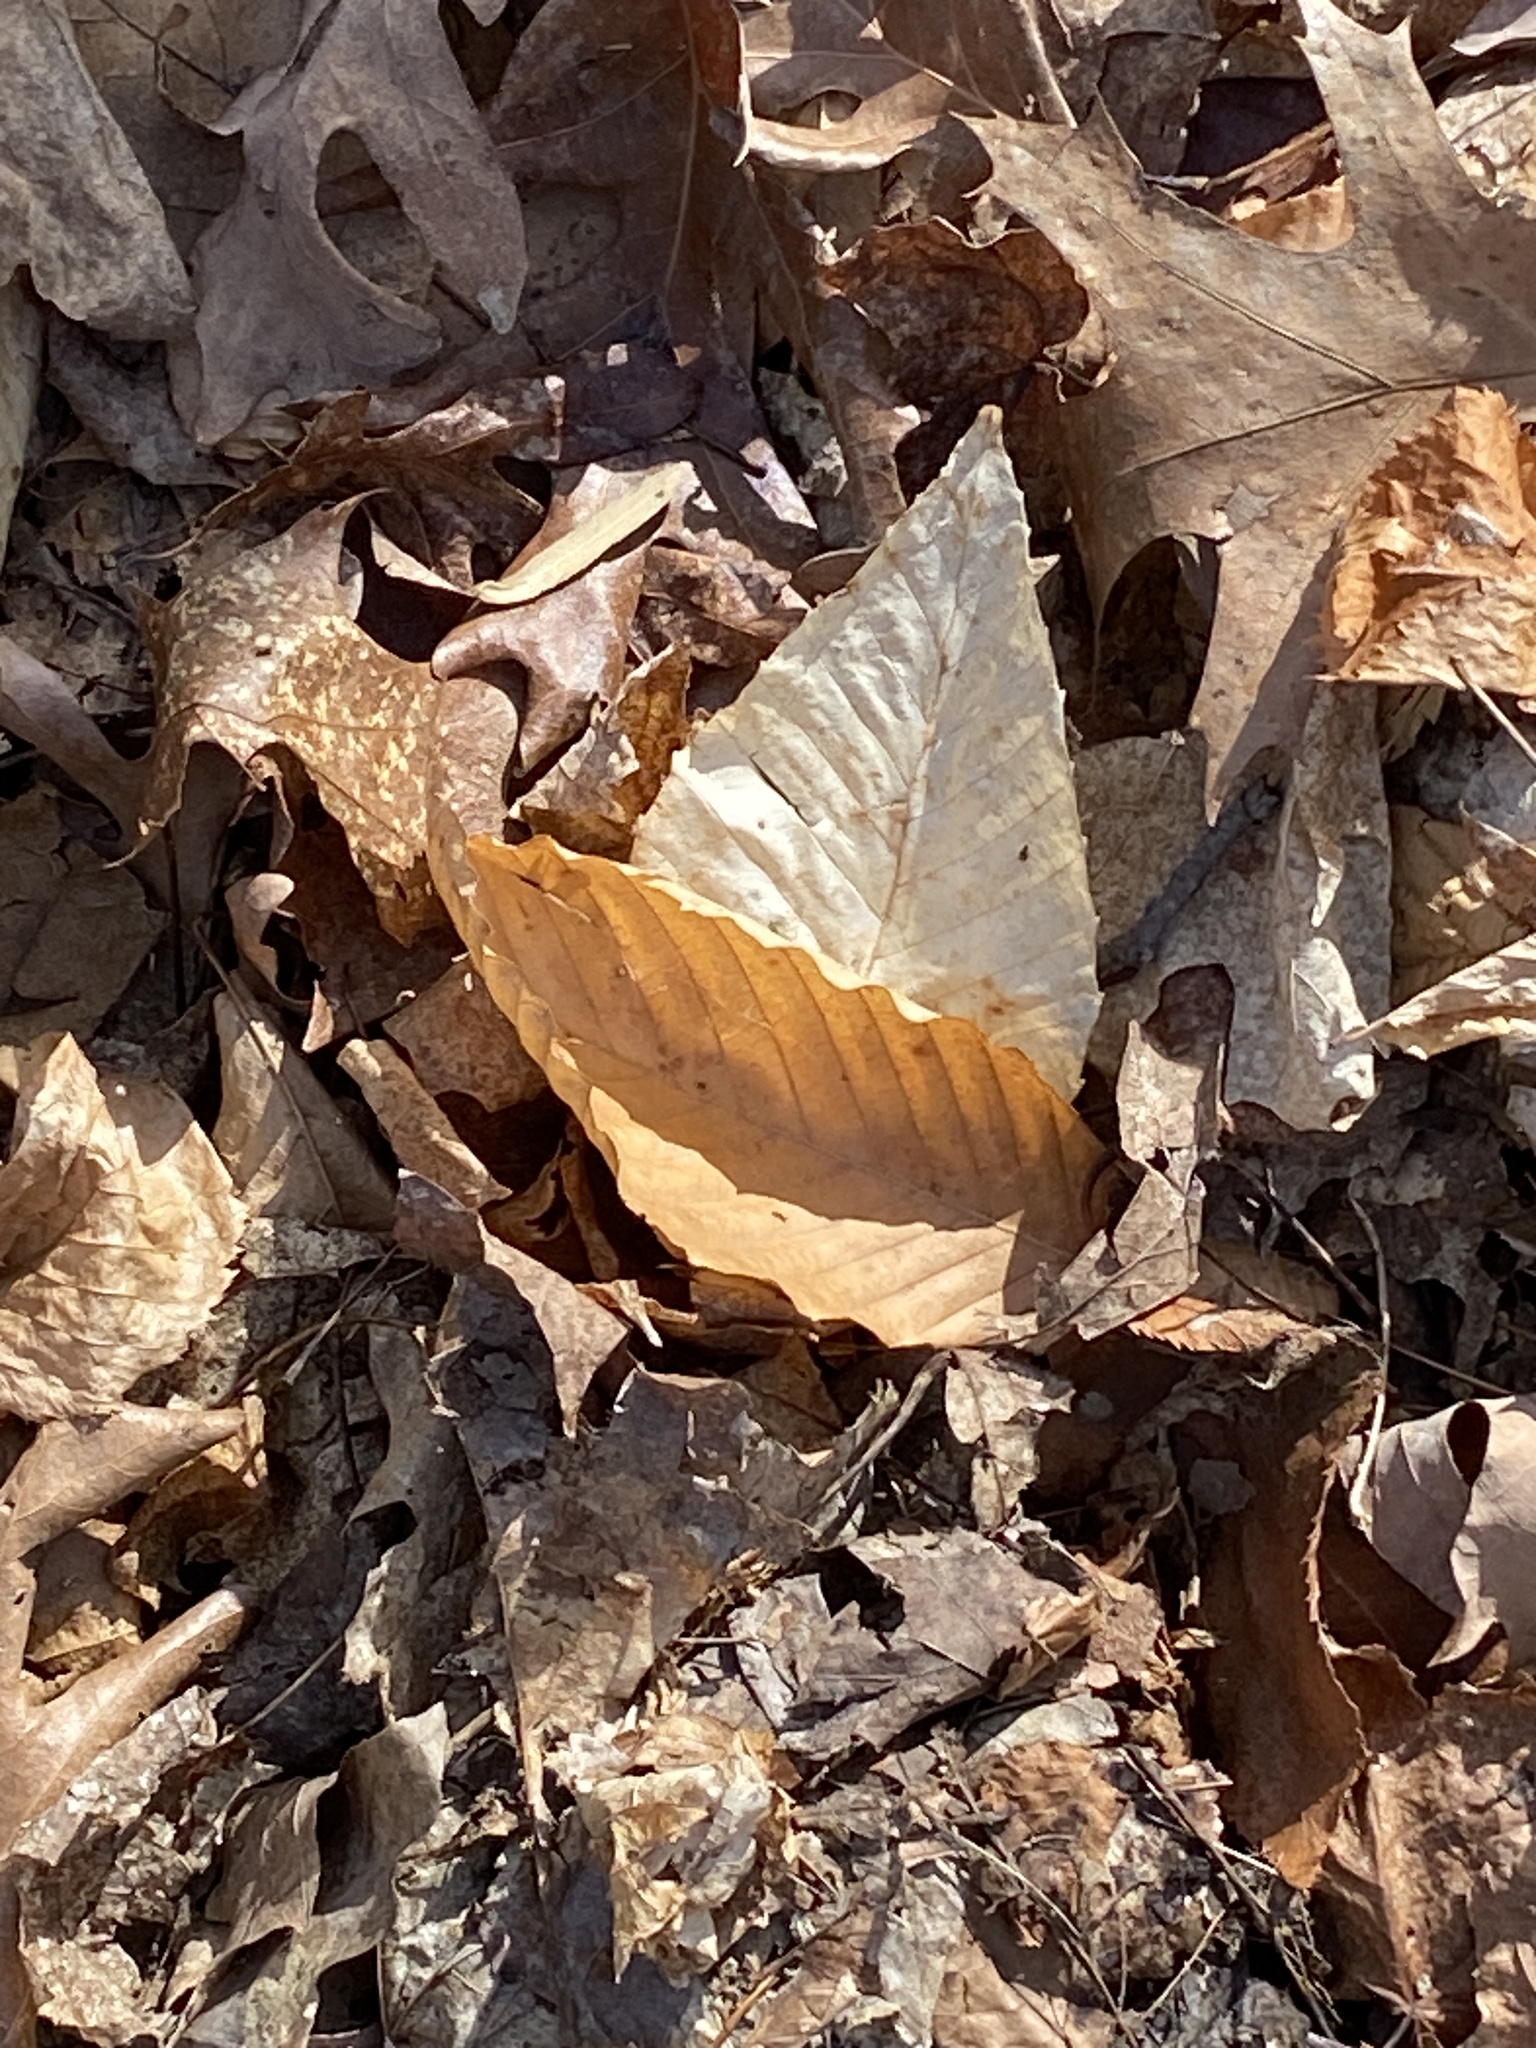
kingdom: Plantae
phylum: Tracheophyta
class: Magnoliopsida
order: Fagales
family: Fagaceae
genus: Fagus
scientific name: Fagus grandifolia
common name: American beech
